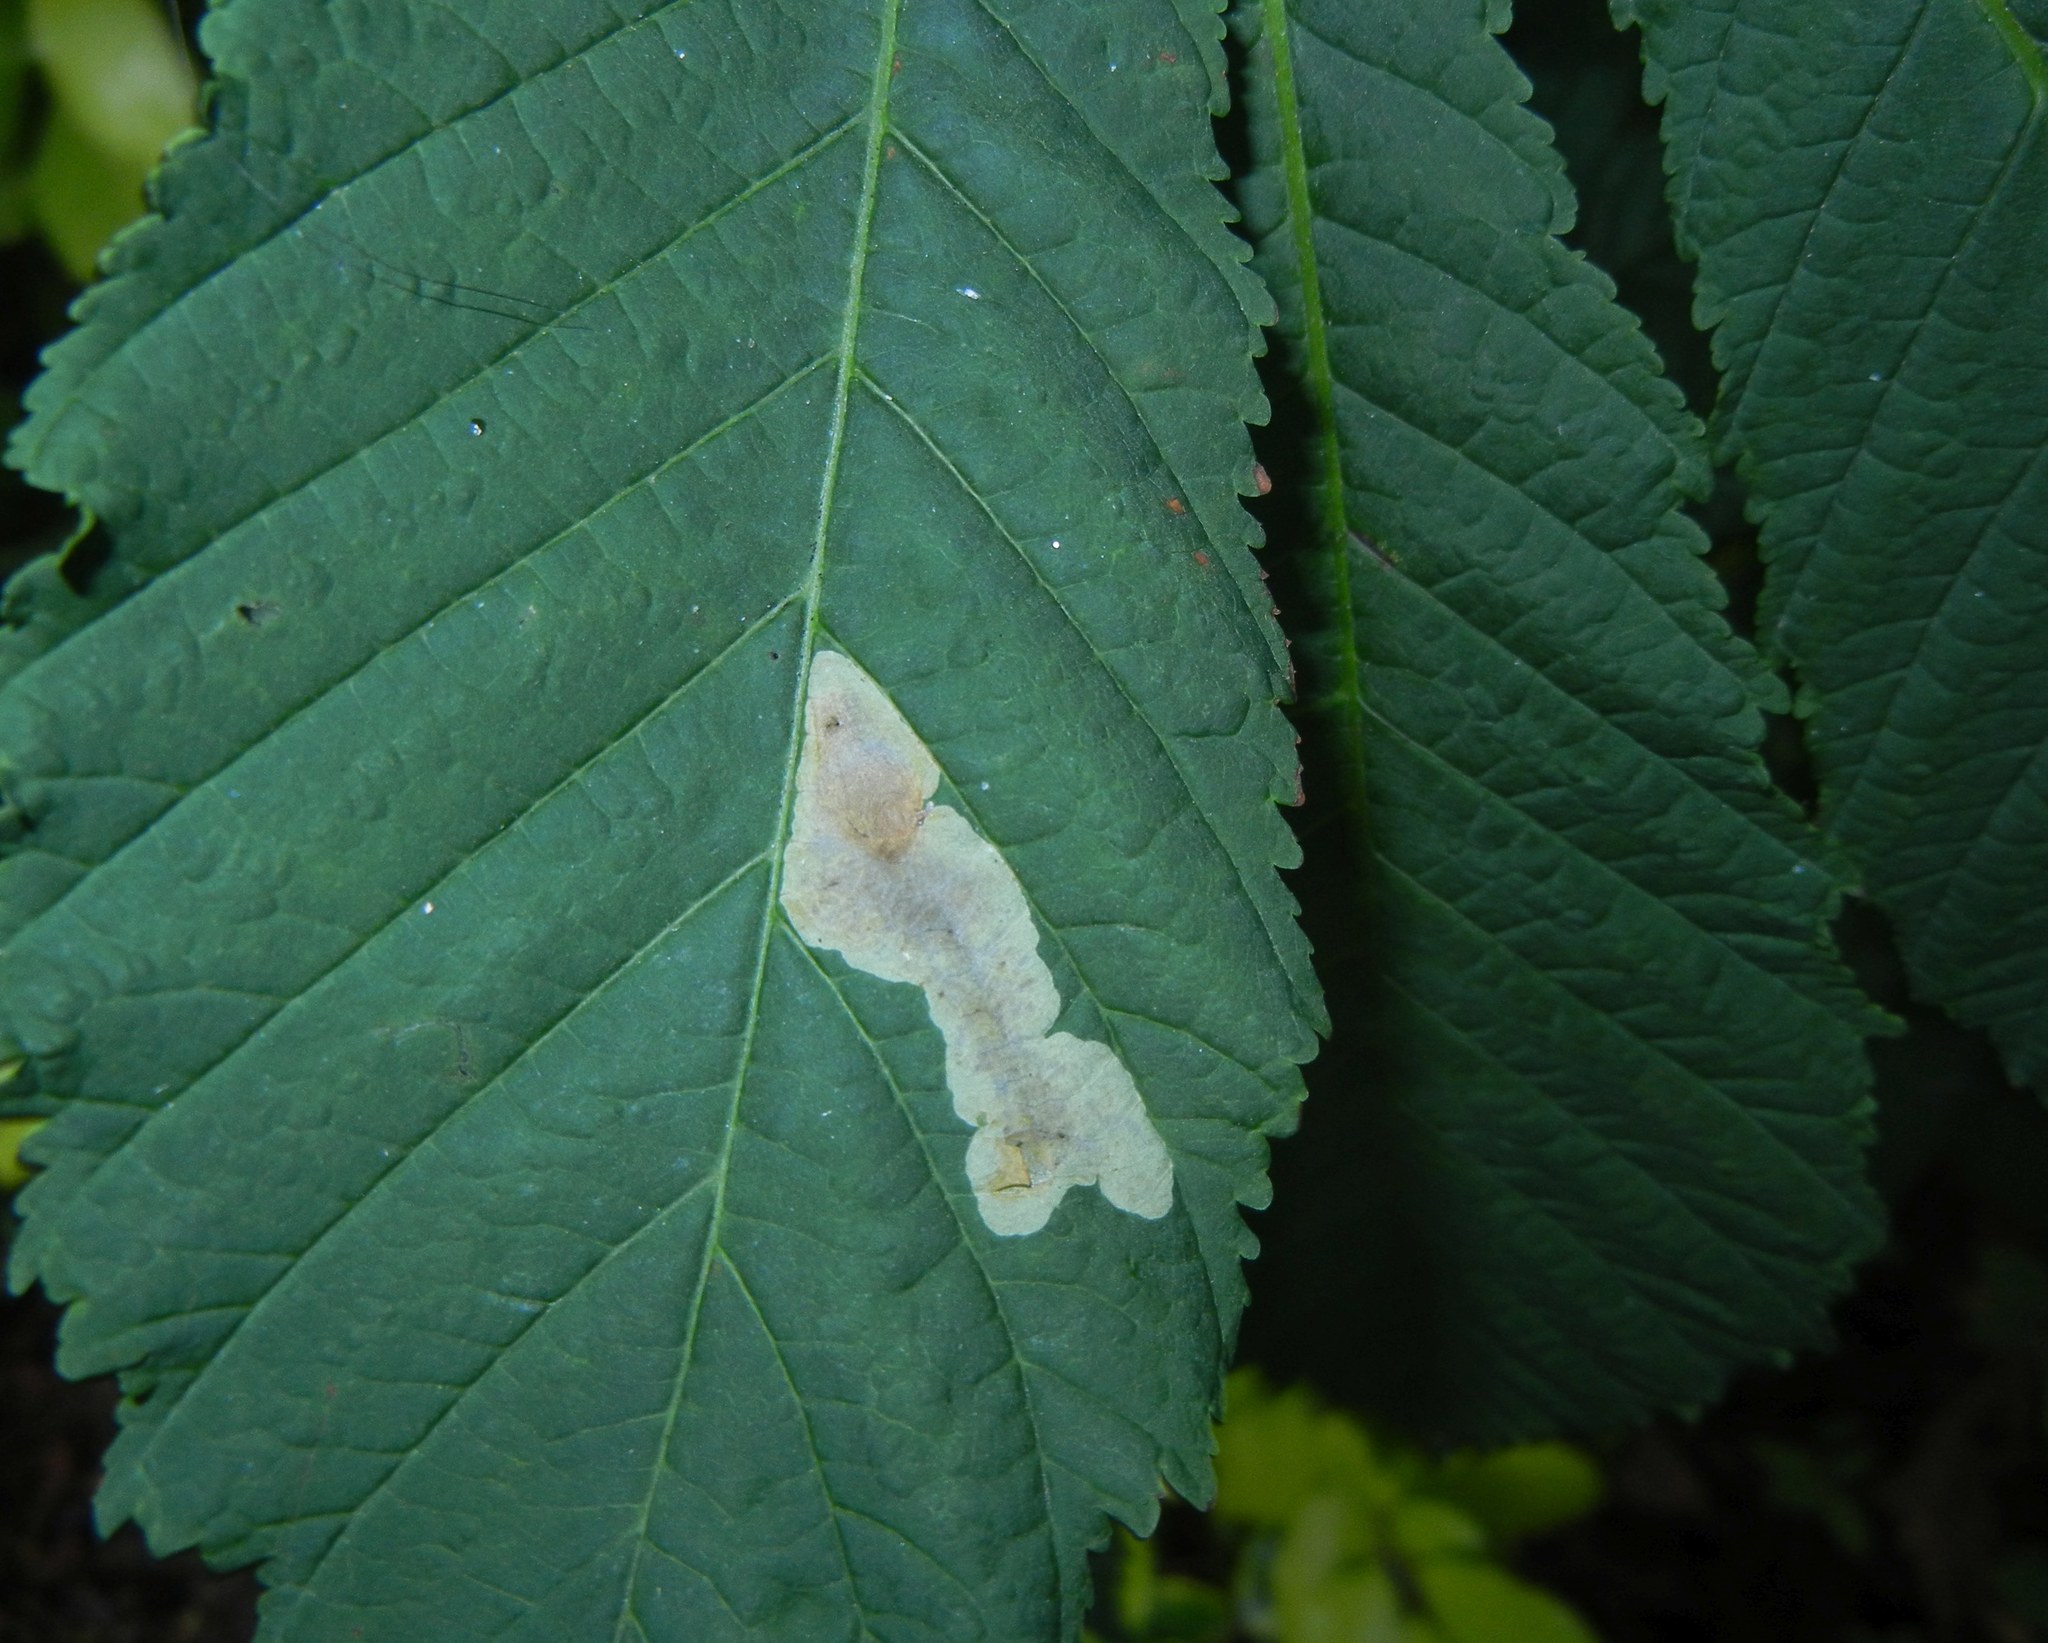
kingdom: Animalia
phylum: Arthropoda
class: Insecta
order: Lepidoptera
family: Gracillariidae
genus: Cameraria
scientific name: Cameraria ohridella
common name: Horse-chestnut leaf-miner
